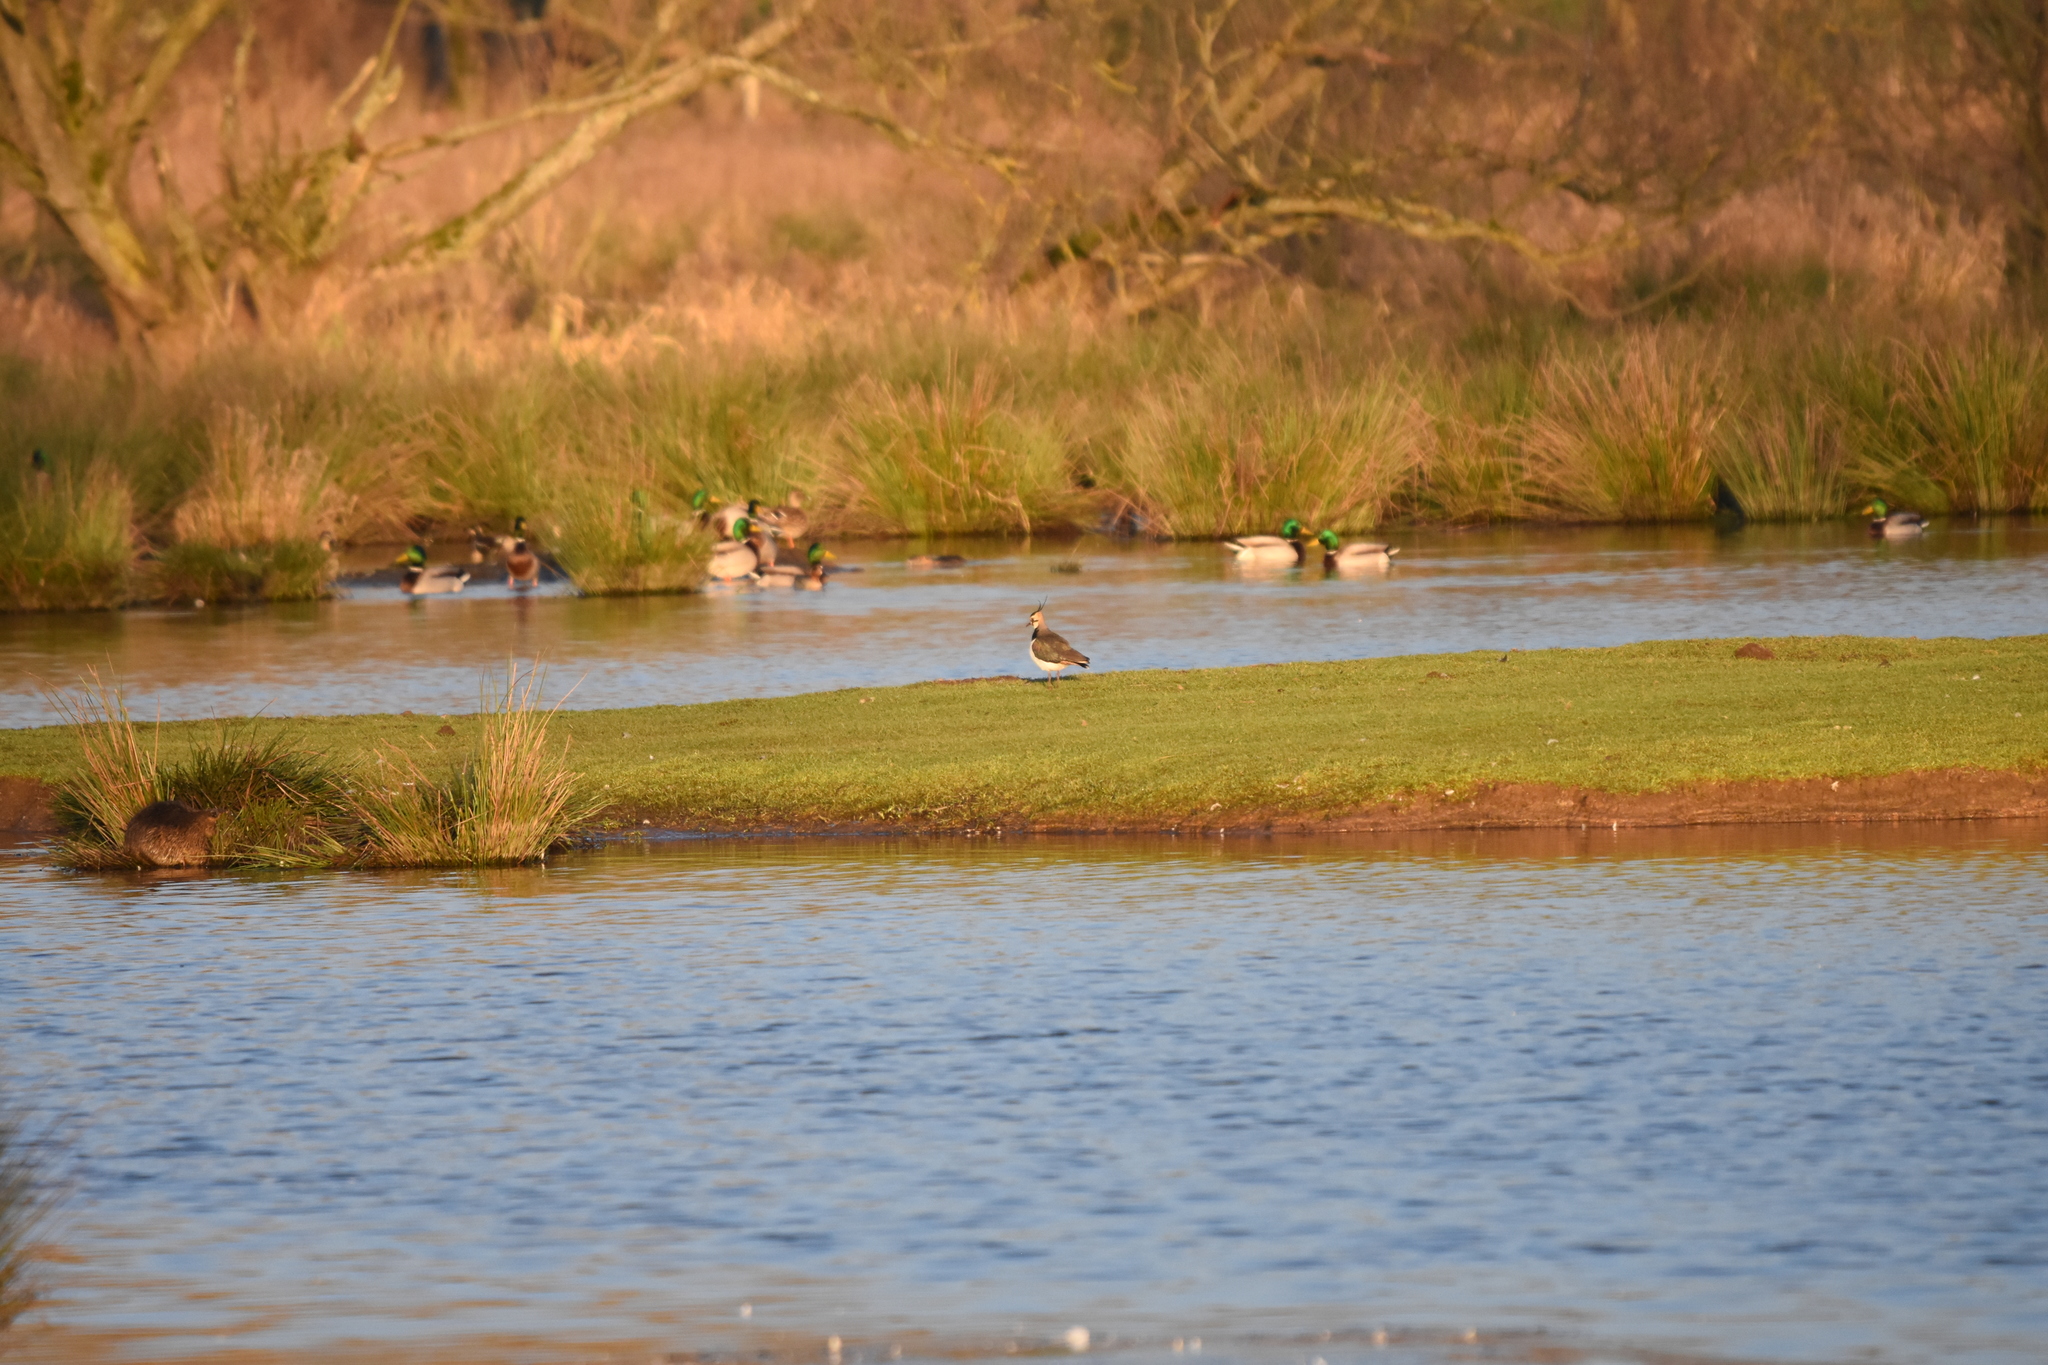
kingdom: Animalia
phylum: Chordata
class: Aves
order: Charadriiformes
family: Charadriidae
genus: Vanellus
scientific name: Vanellus vanellus
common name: Northern lapwing
